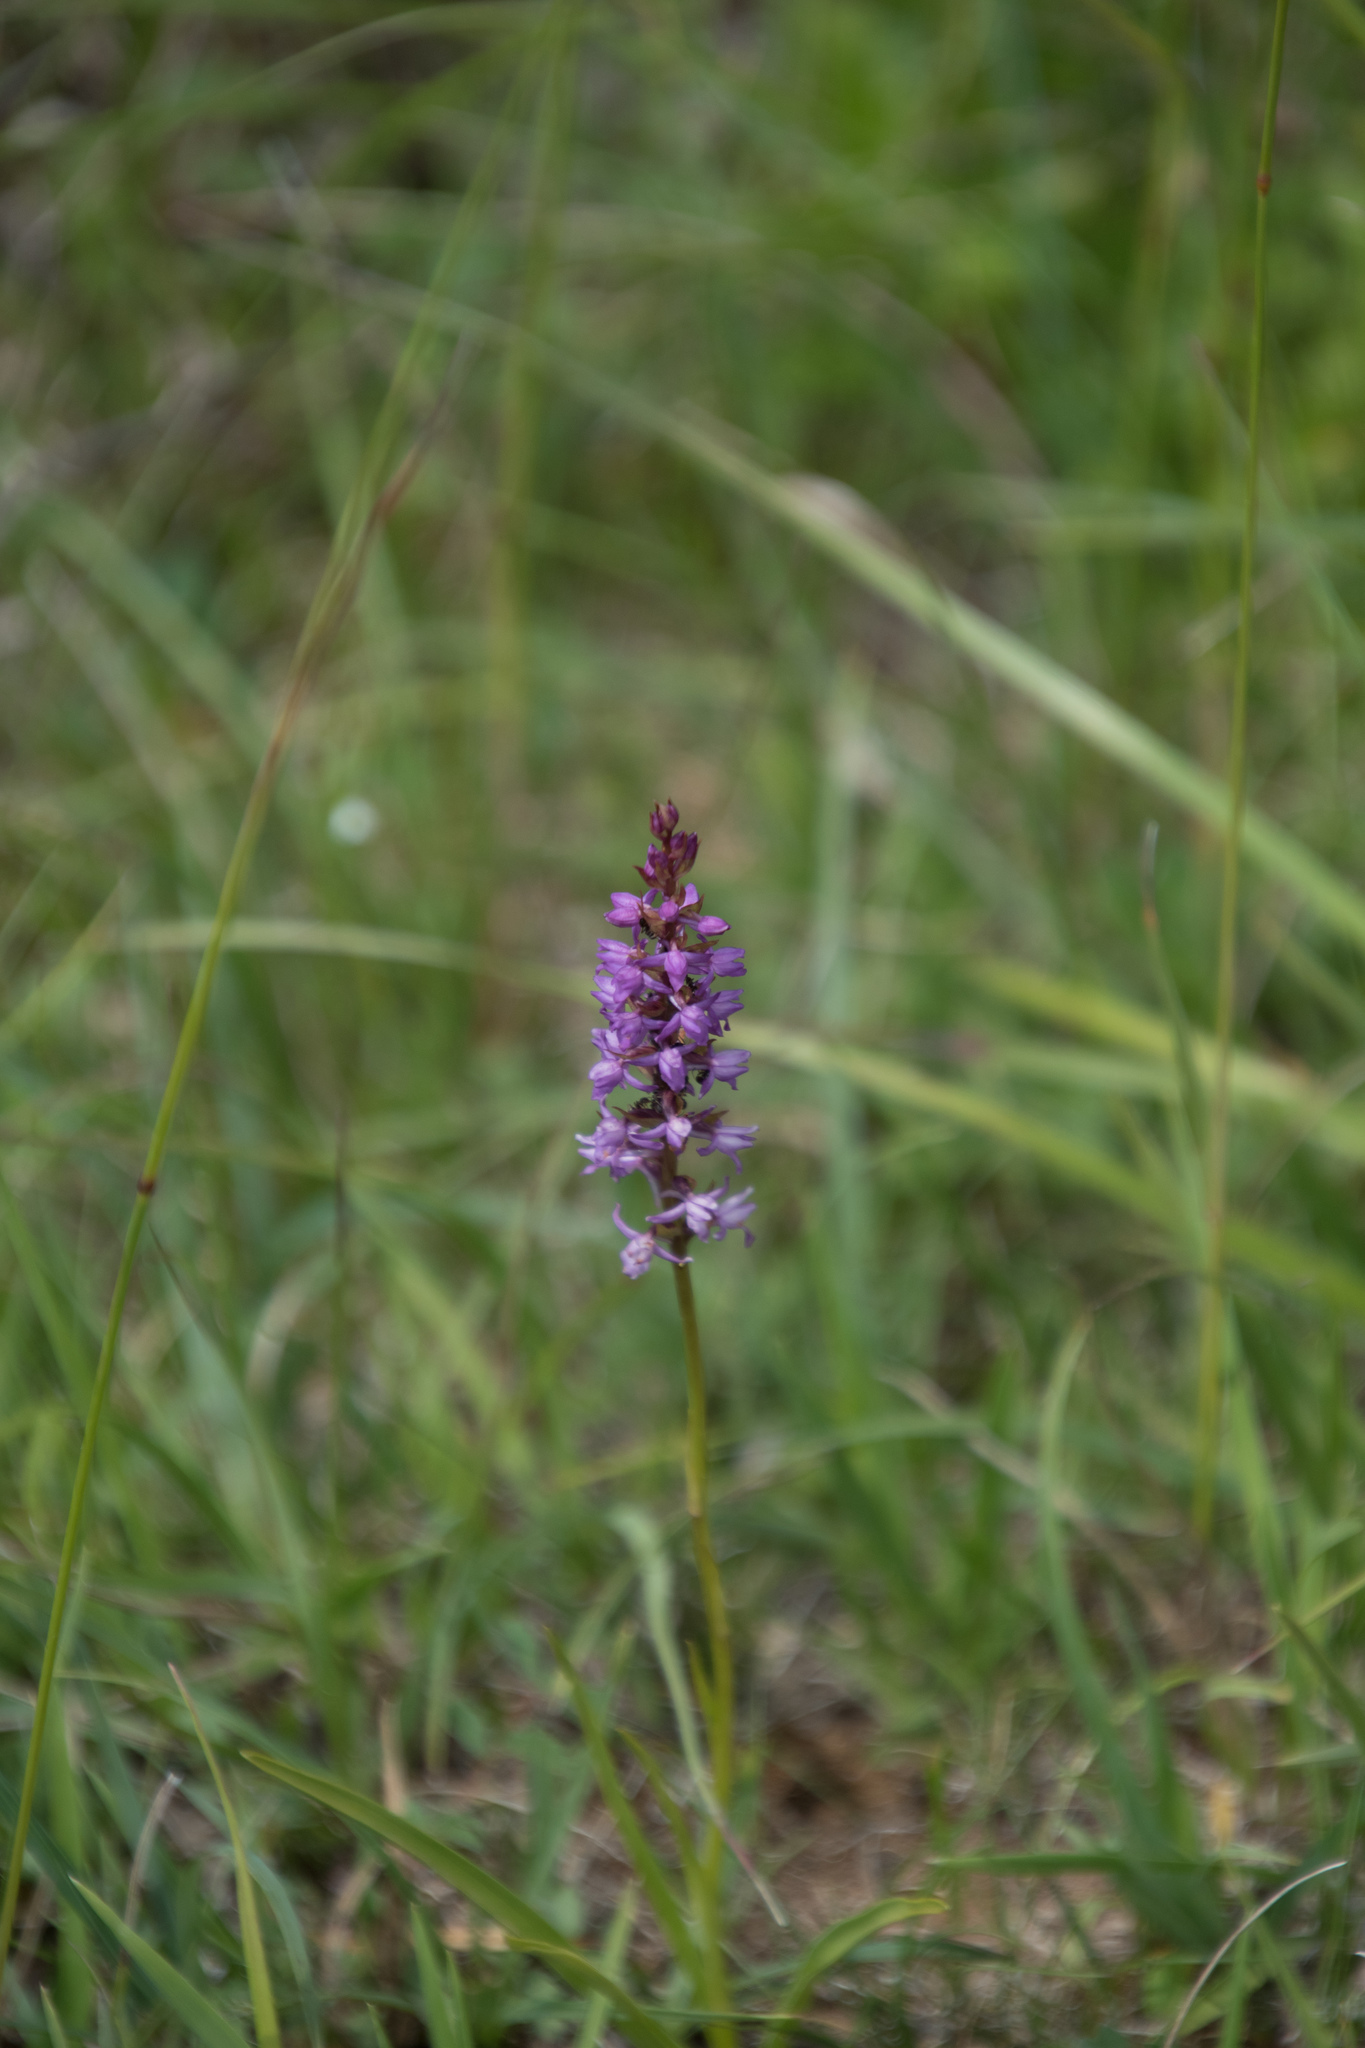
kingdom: Plantae
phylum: Tracheophyta
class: Liliopsida
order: Asparagales
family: Orchidaceae
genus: Gymnadenia
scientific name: Gymnadenia odoratissima
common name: Scented gymnadenia
